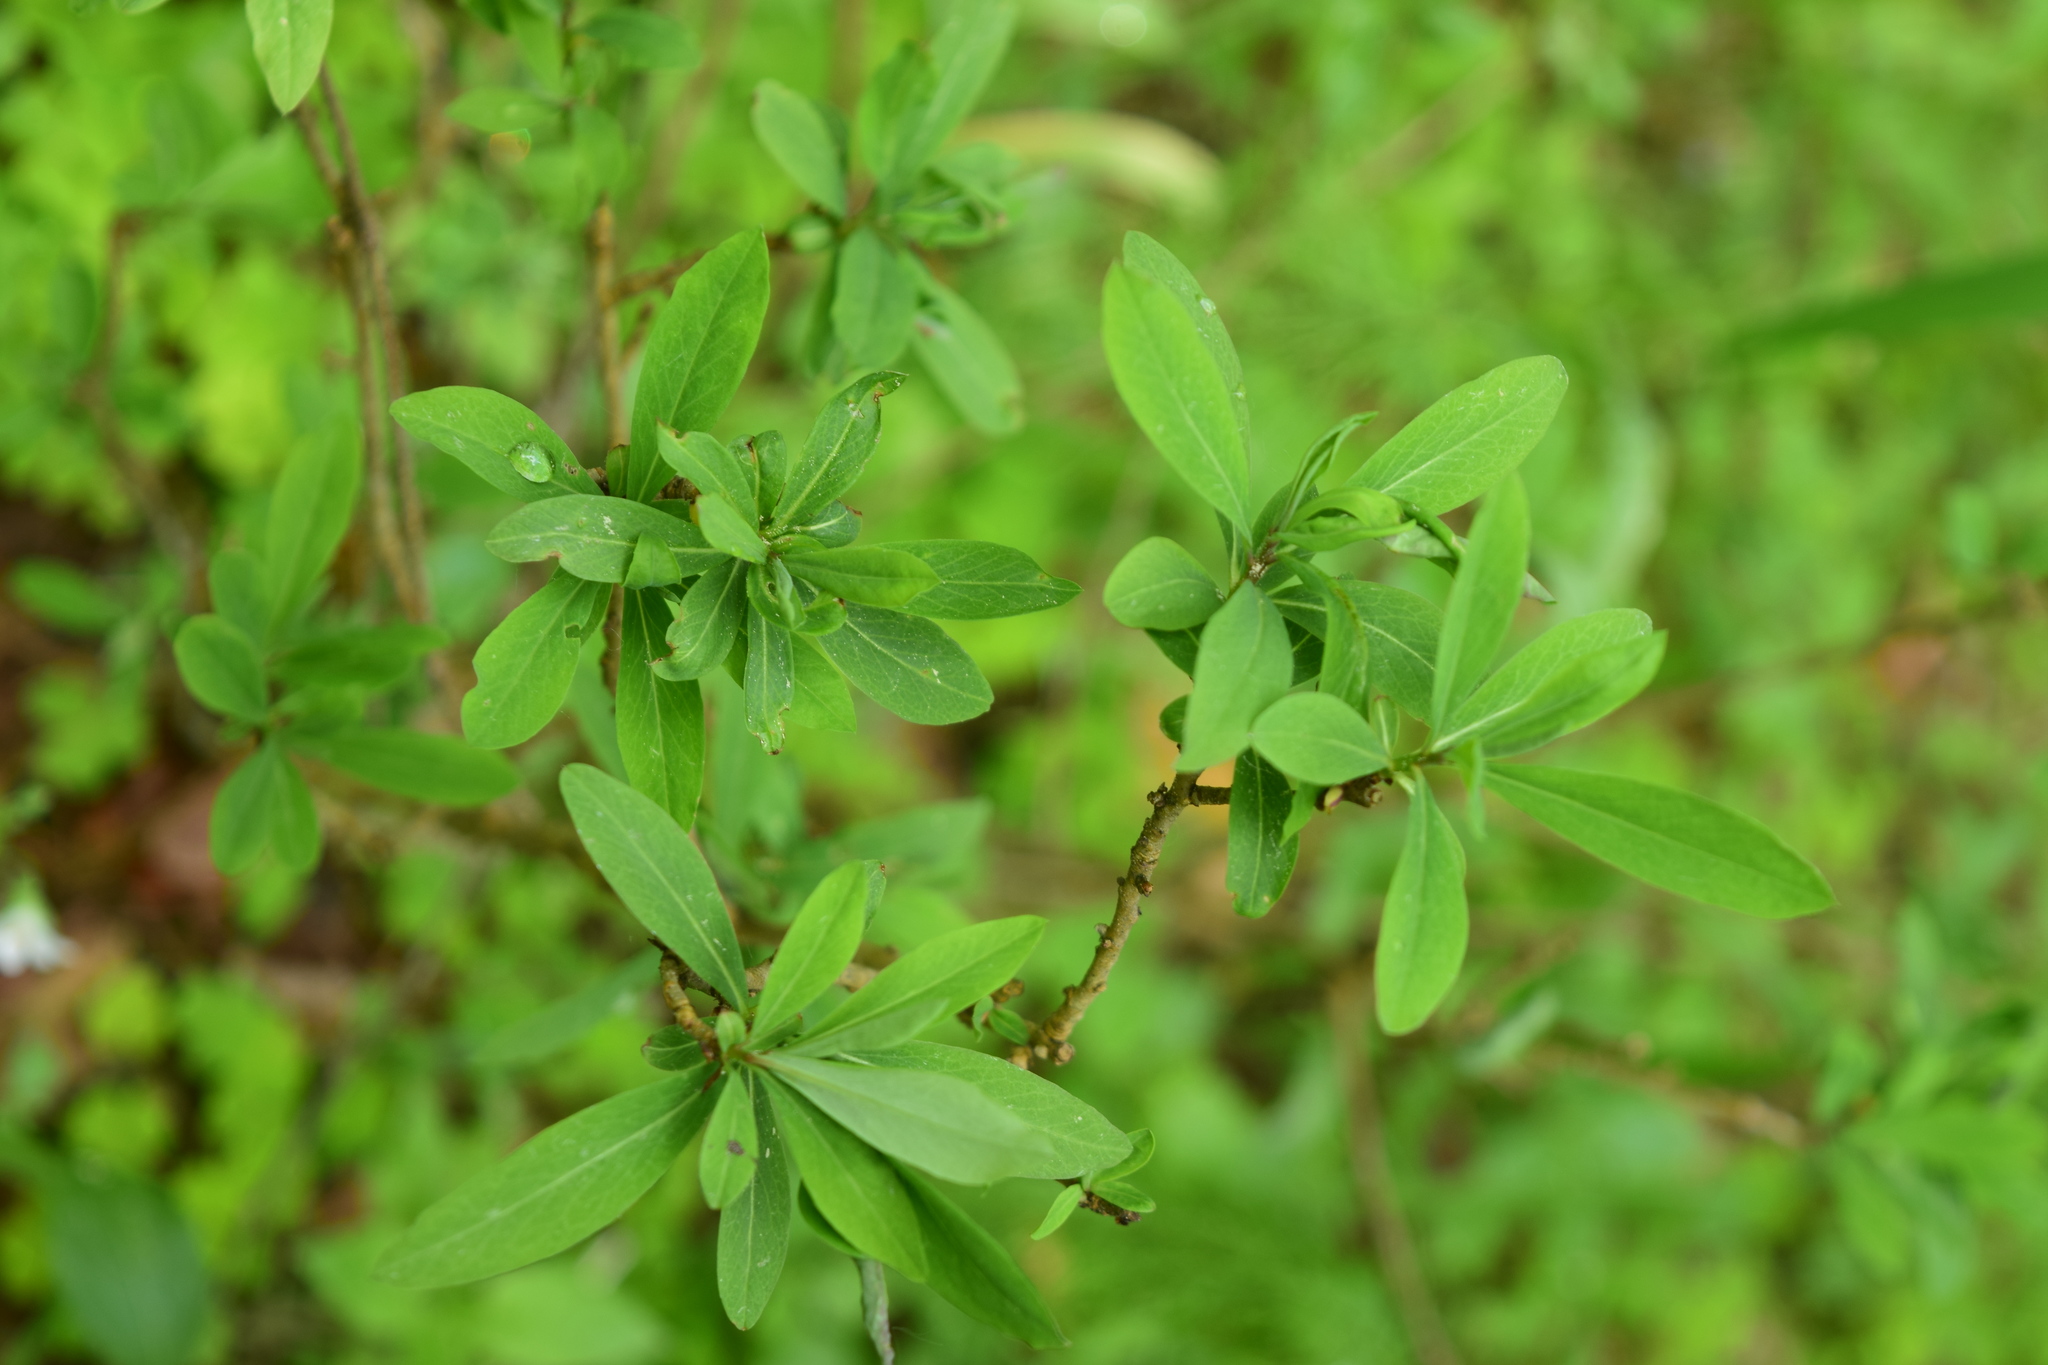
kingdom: Plantae
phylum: Tracheophyta
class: Magnoliopsida
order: Malvales
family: Thymelaeaceae
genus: Daphne
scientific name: Daphne mezereum
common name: Mezereon
